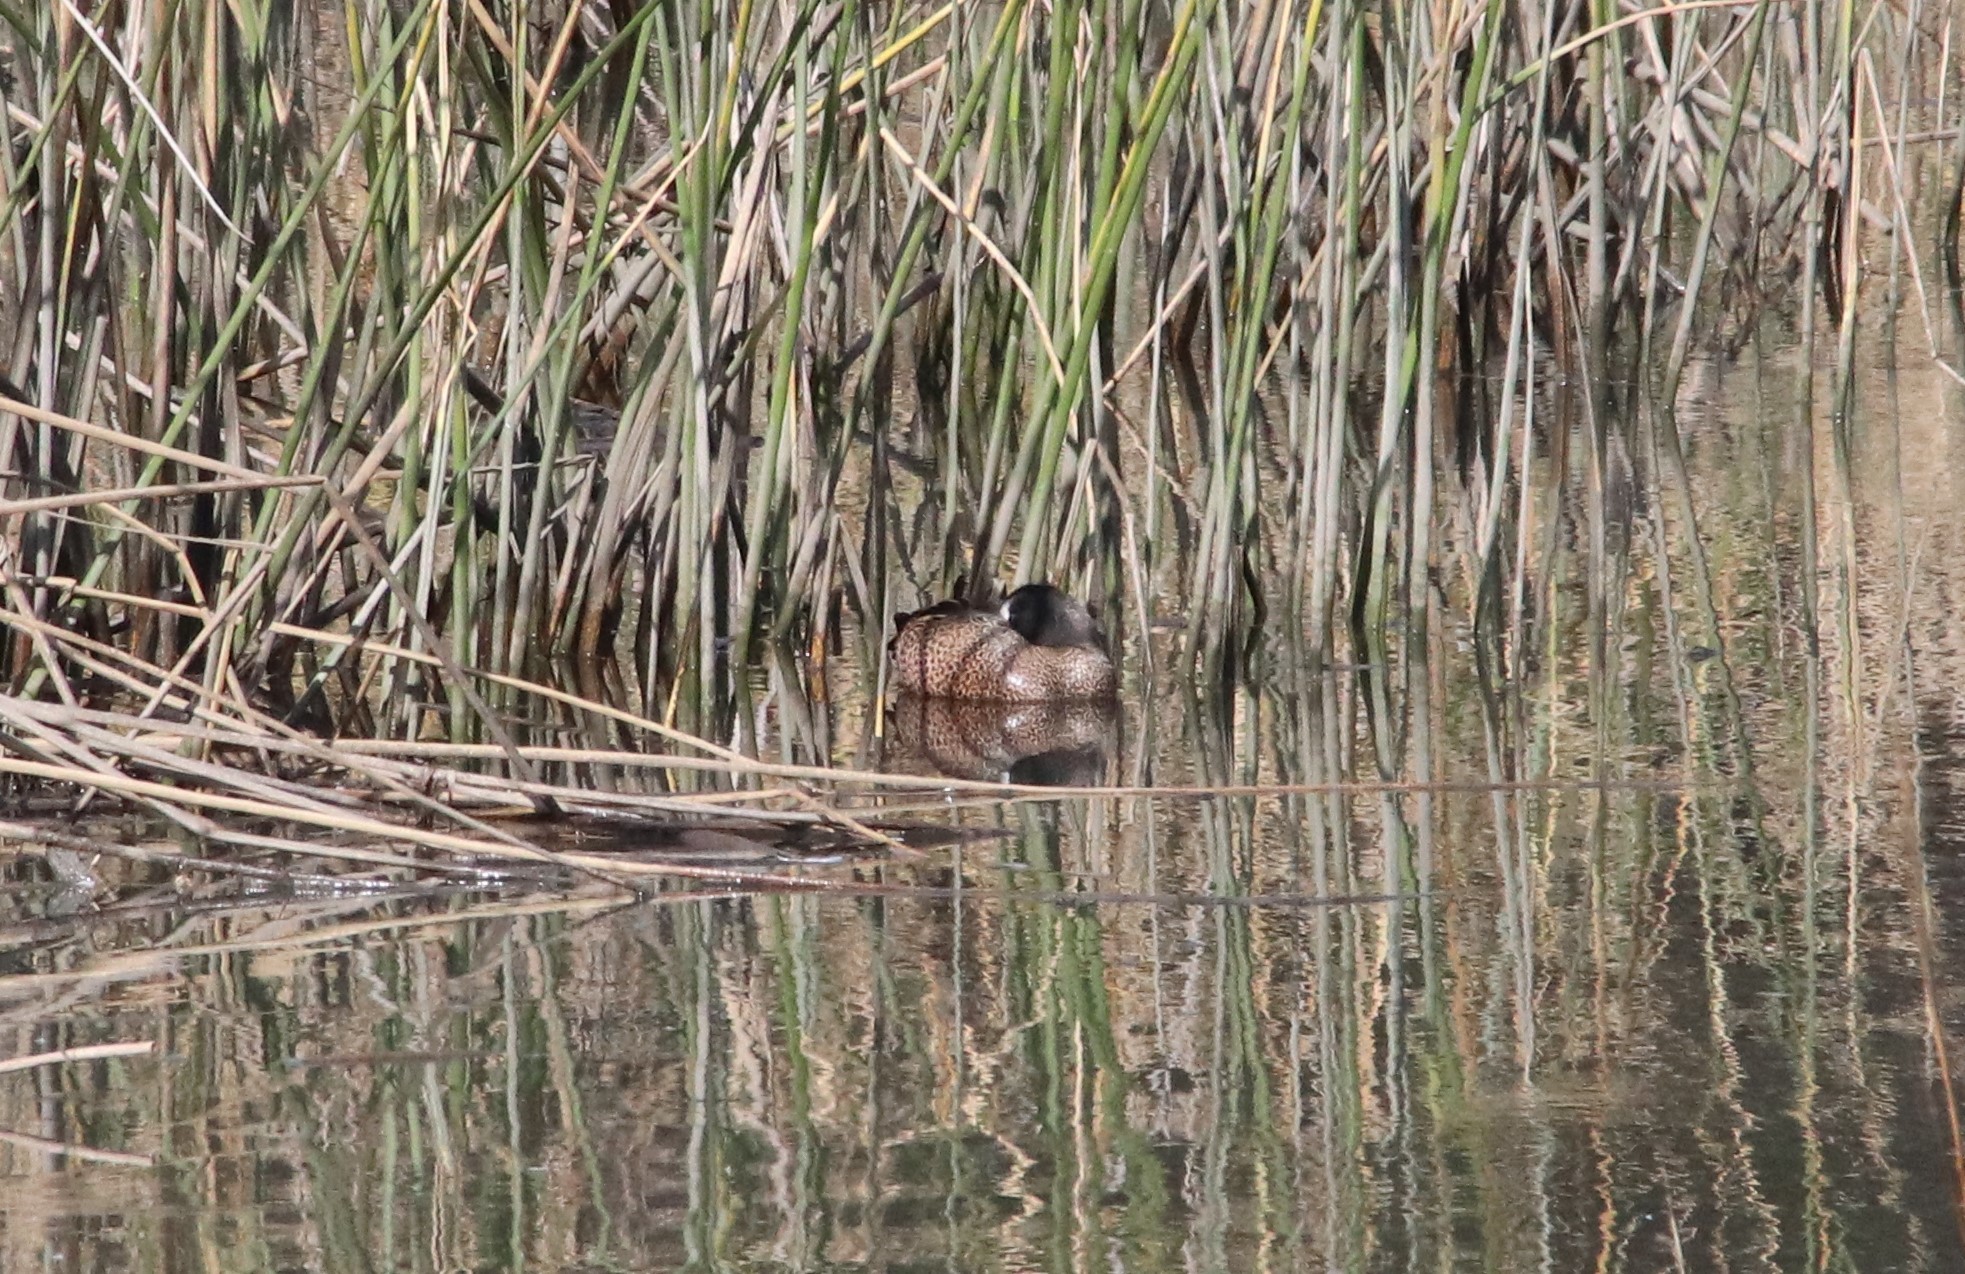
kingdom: Animalia
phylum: Chordata
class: Aves
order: Anseriformes
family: Anatidae
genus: Spatula
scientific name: Spatula discors
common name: Blue-winged teal
